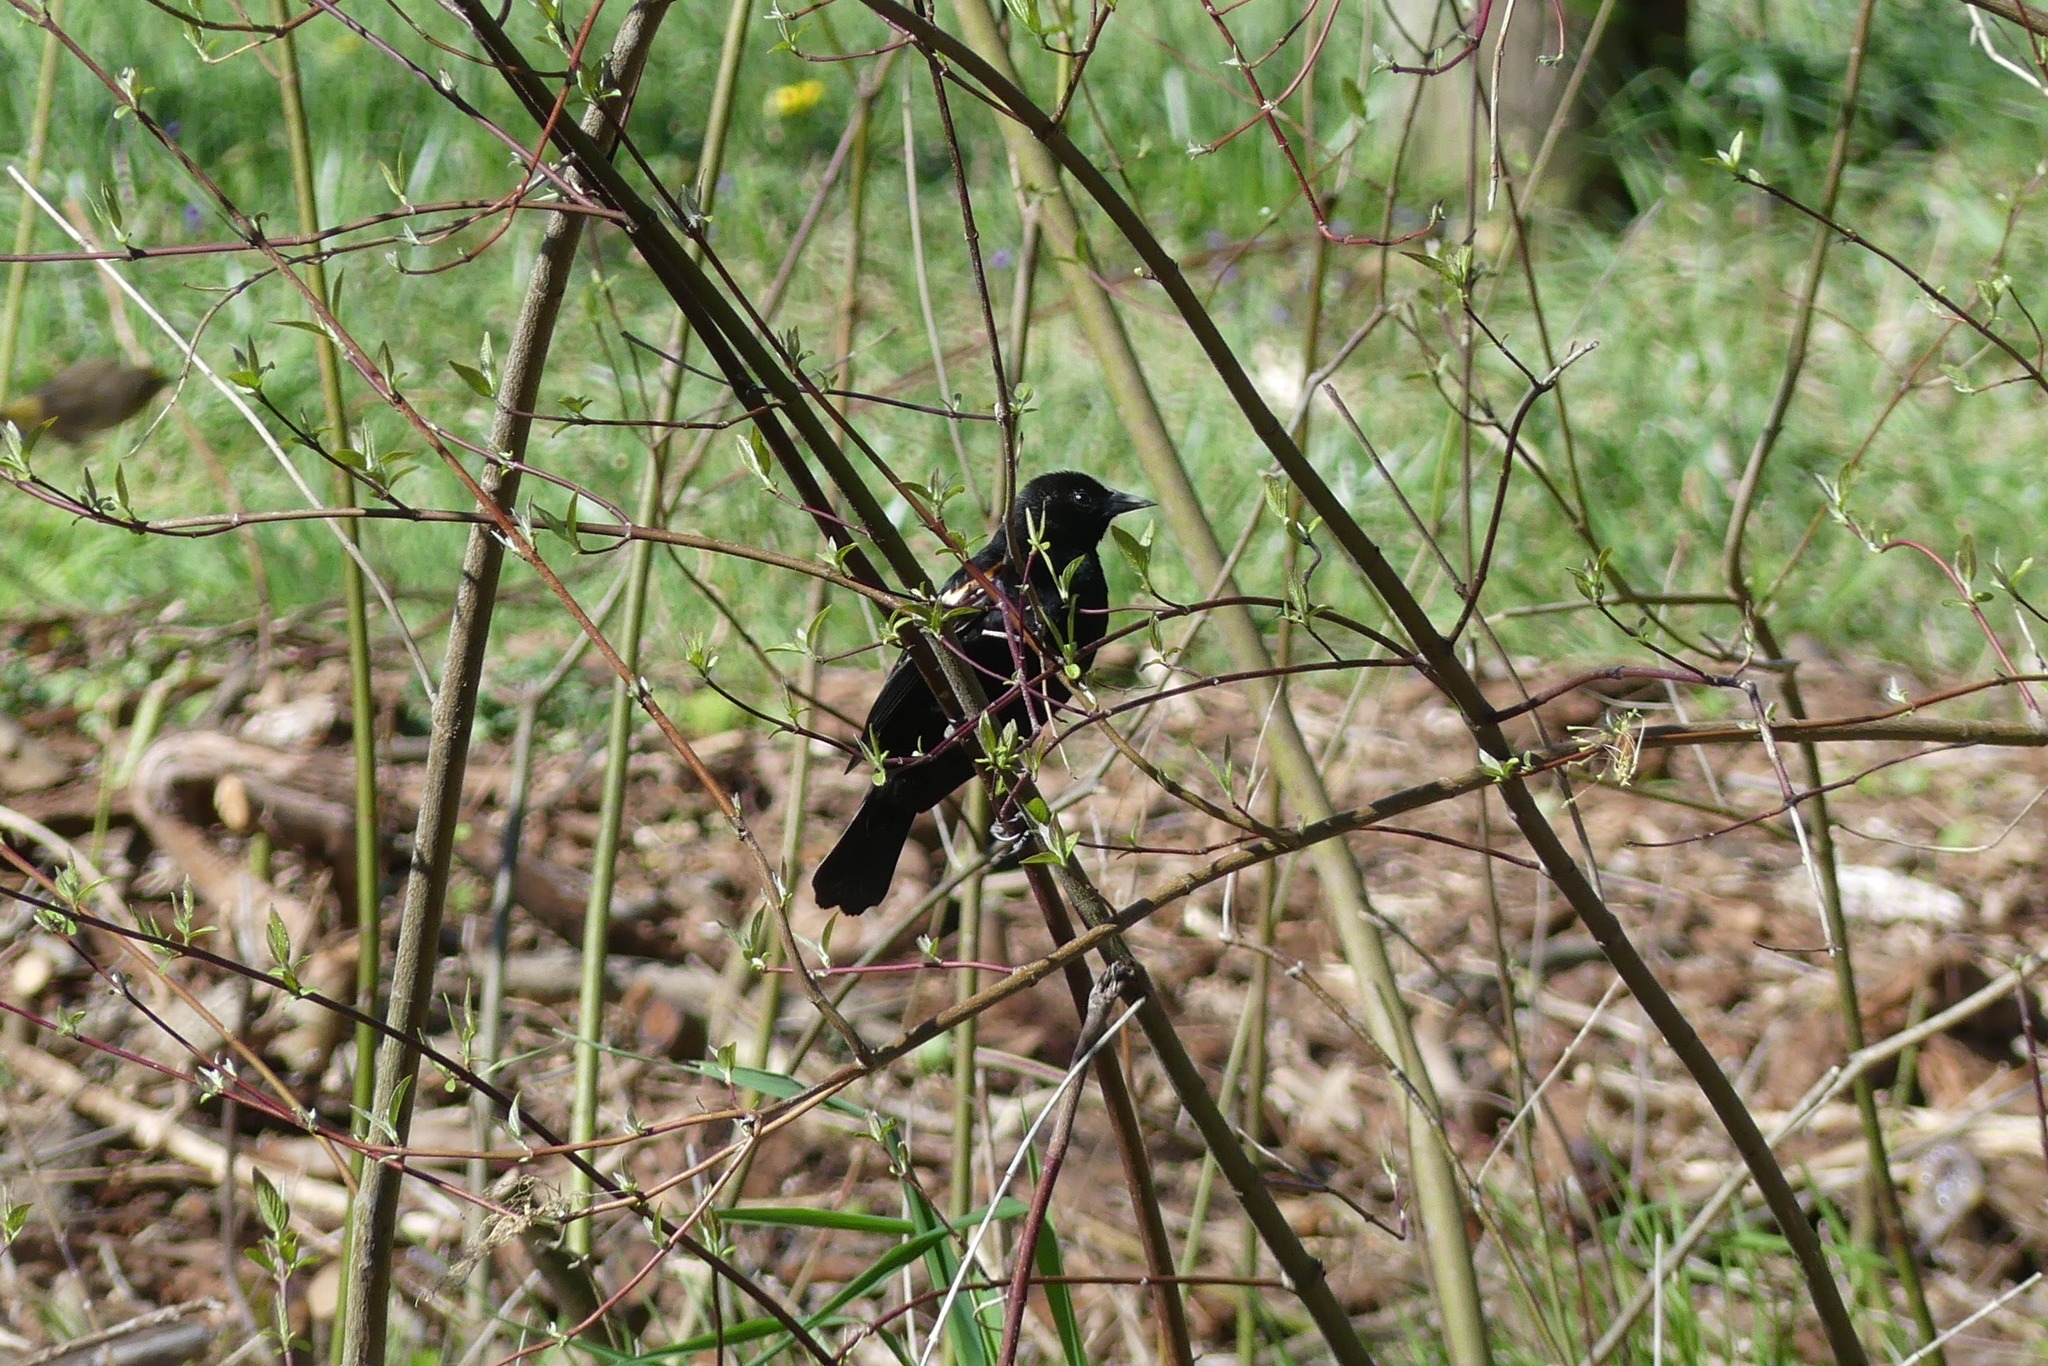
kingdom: Animalia
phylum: Chordata
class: Aves
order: Passeriformes
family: Icteridae
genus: Agelaius
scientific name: Agelaius phoeniceus
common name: Red-winged blackbird
